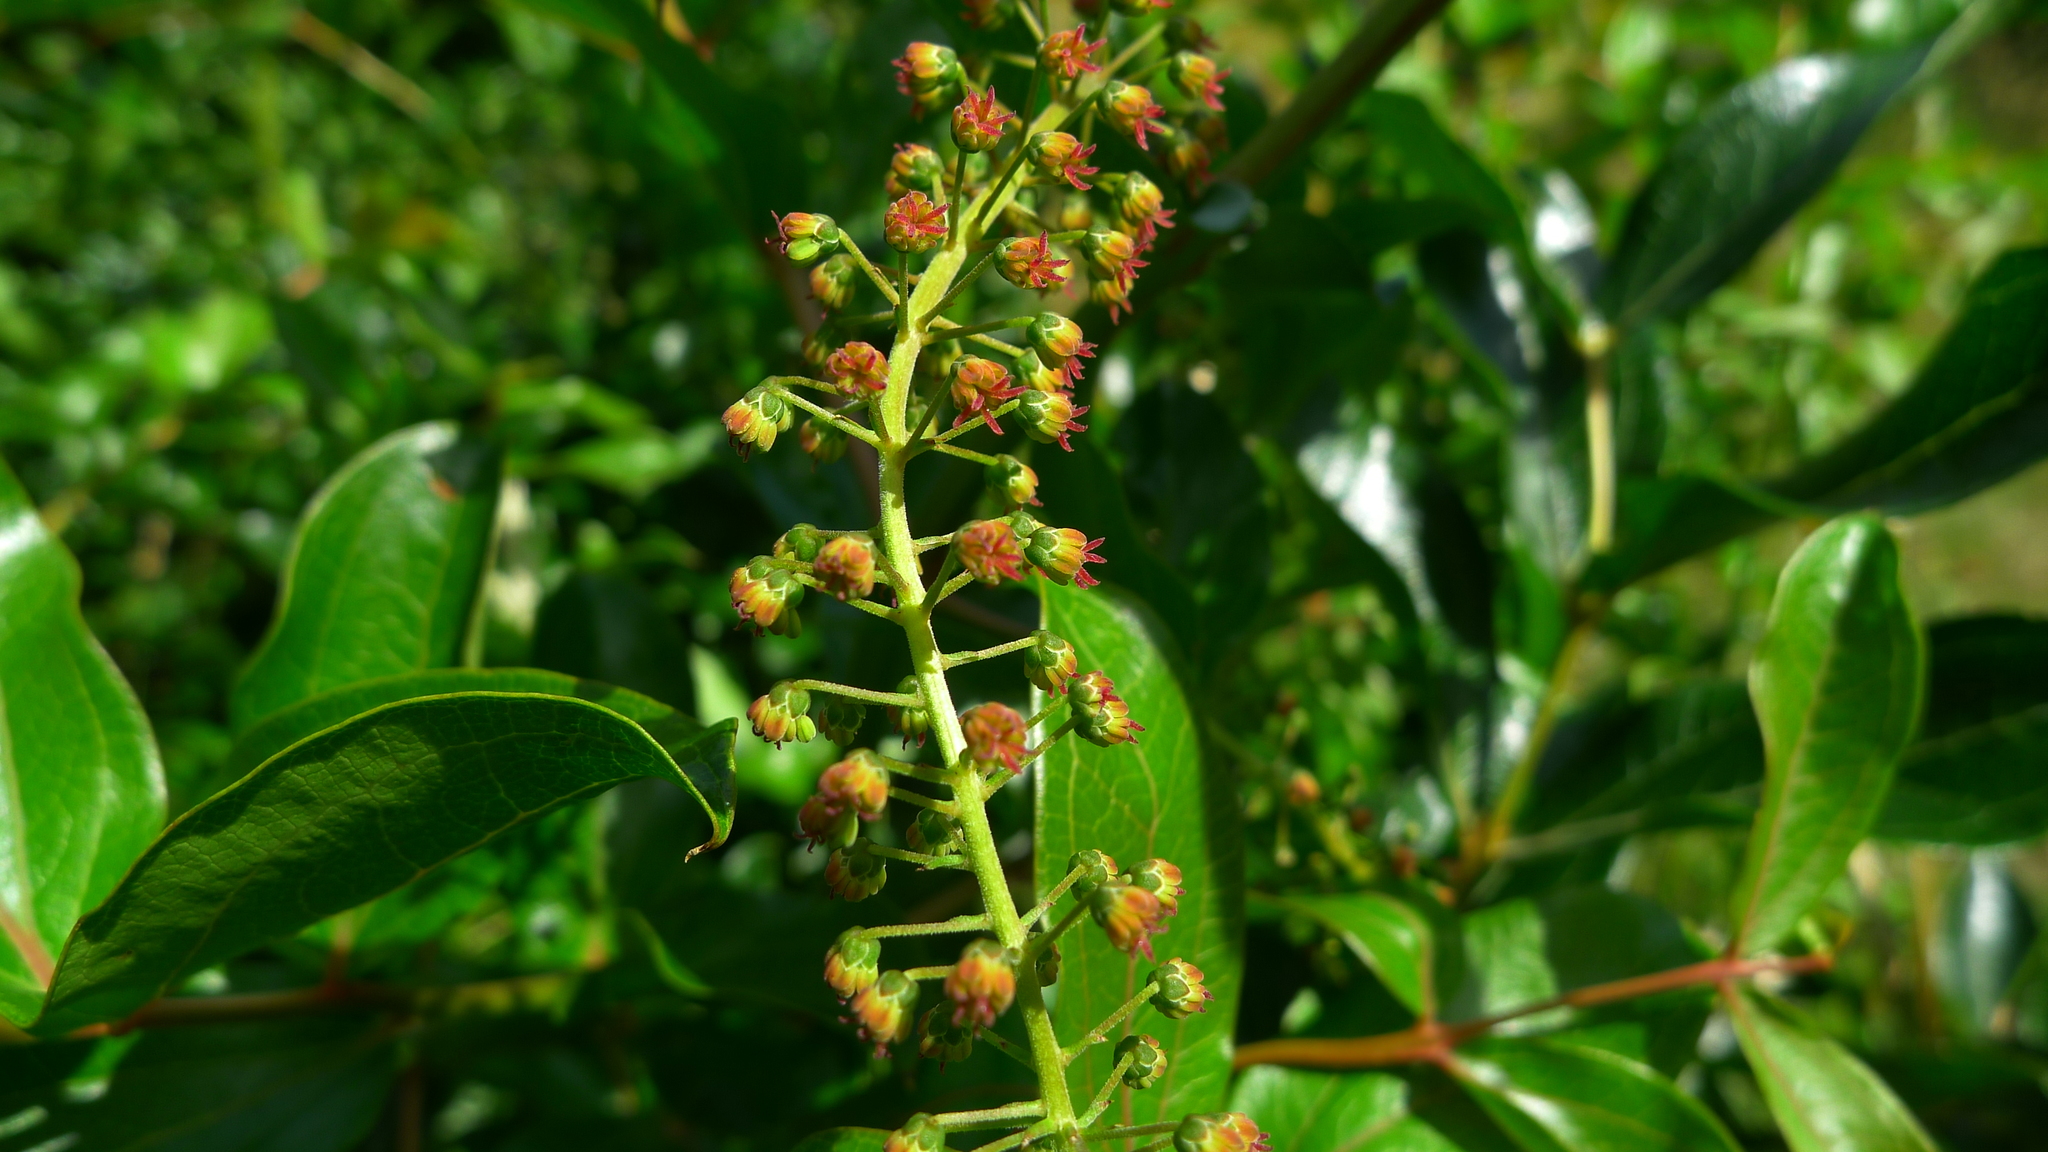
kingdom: Plantae
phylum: Tracheophyta
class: Magnoliopsida
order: Cucurbitales
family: Coriariaceae
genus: Coriaria
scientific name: Coriaria arborea
